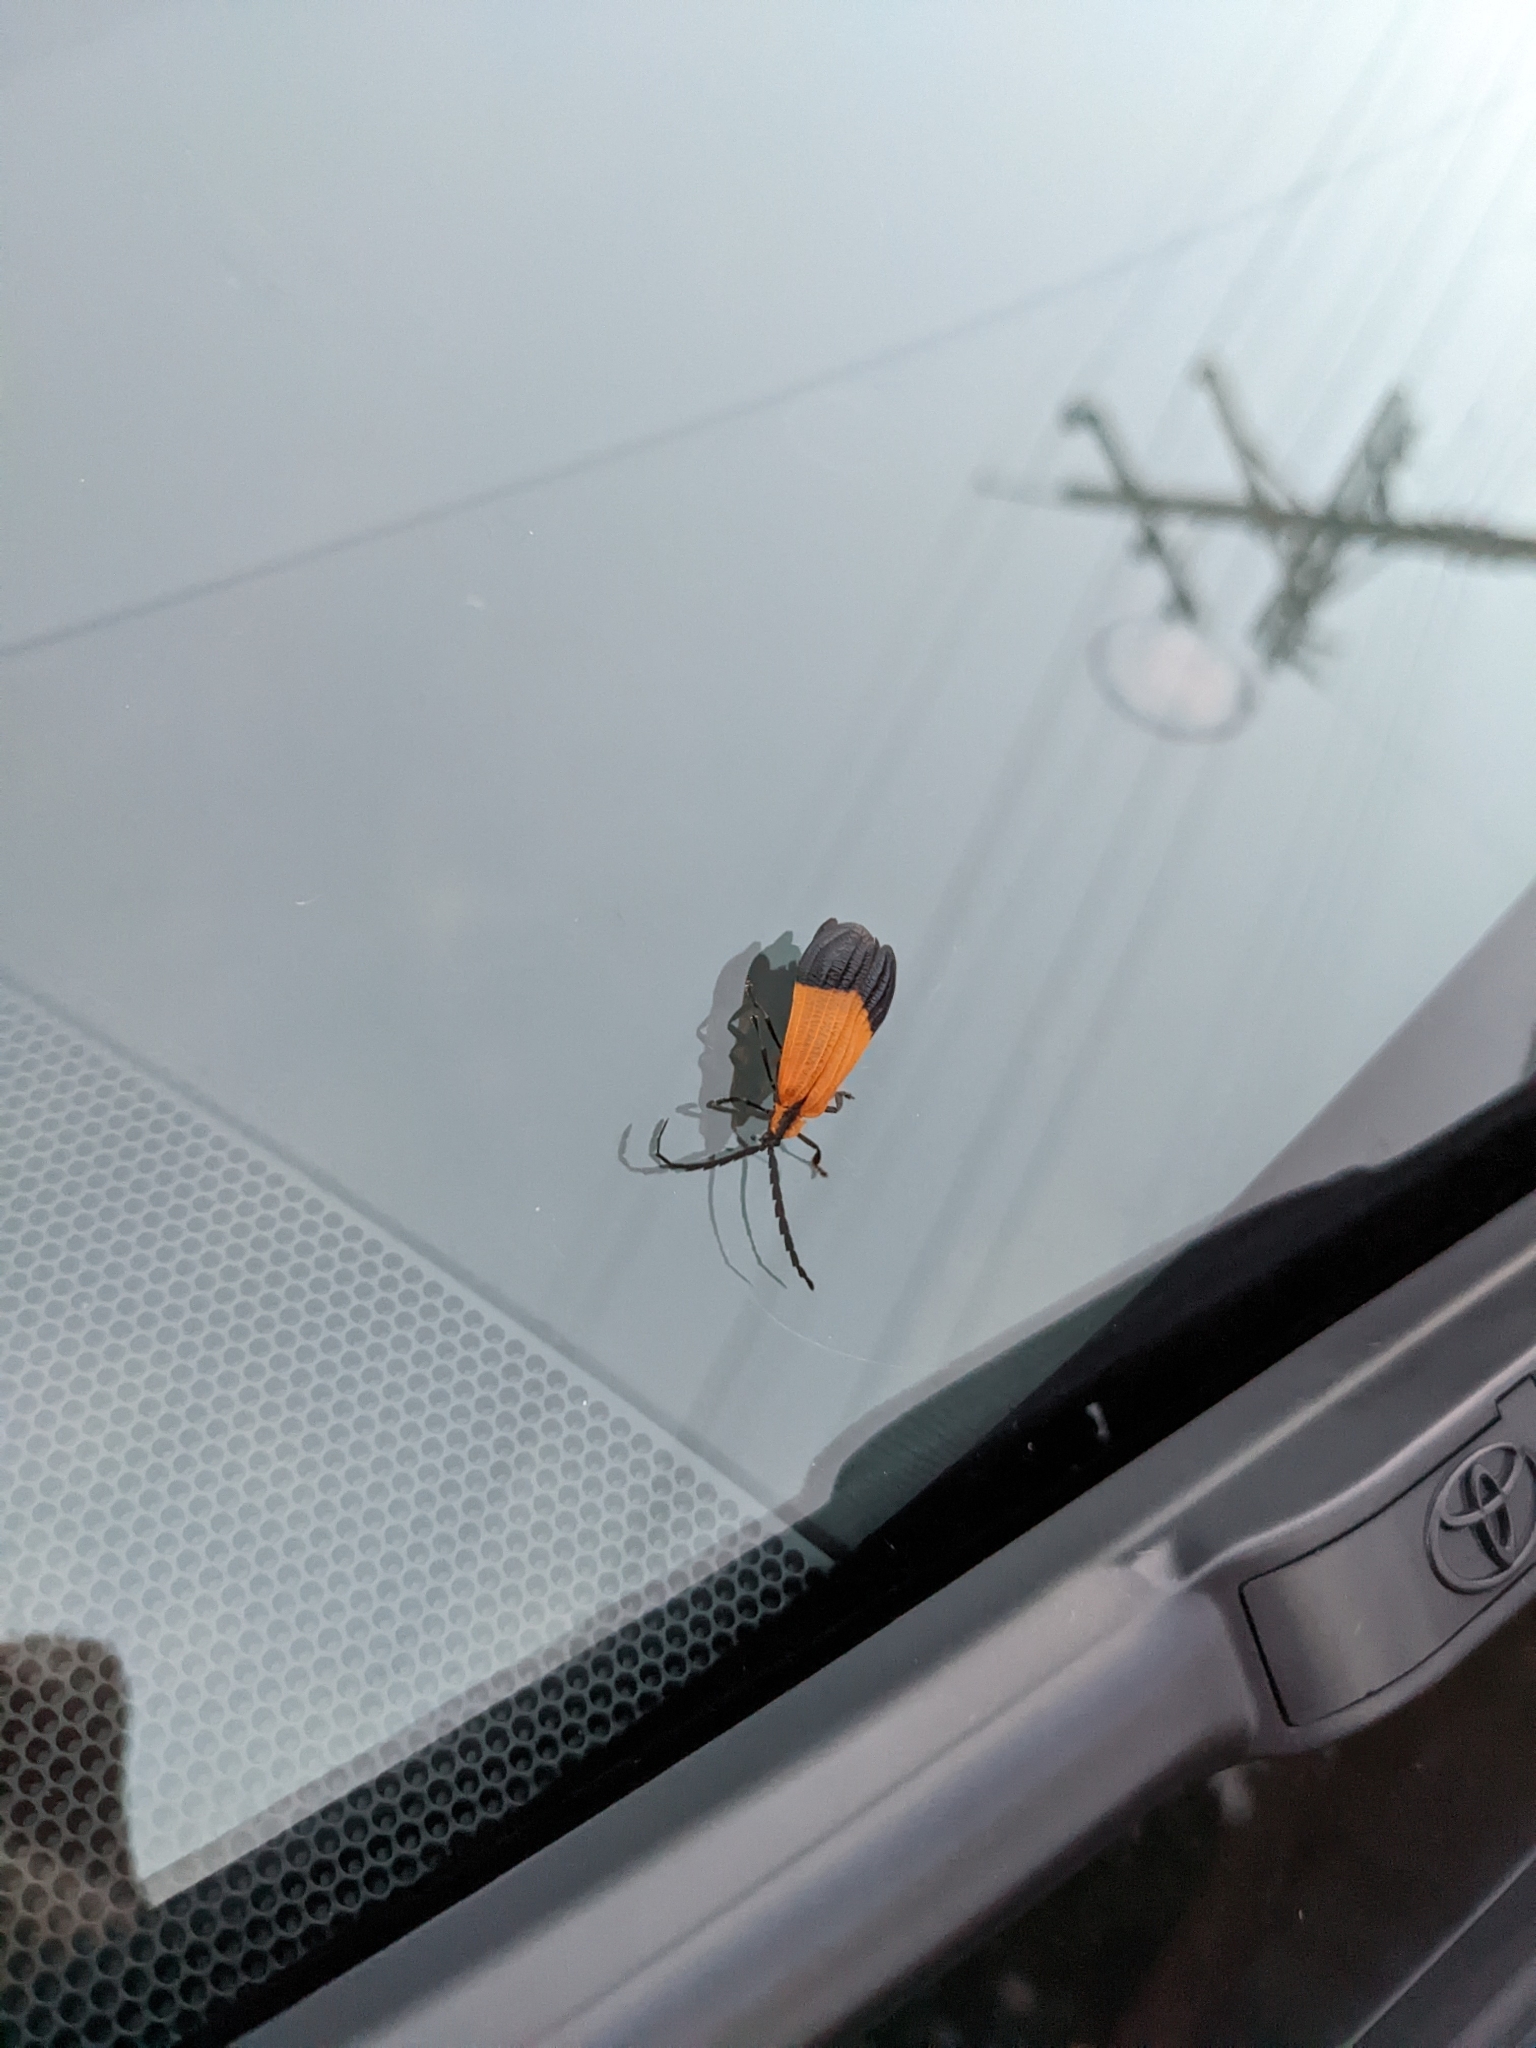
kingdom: Animalia
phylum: Arthropoda
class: Insecta
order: Coleoptera
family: Lycidae
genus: Calopteron
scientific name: Calopteron terminale
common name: End band net-winged beetle
